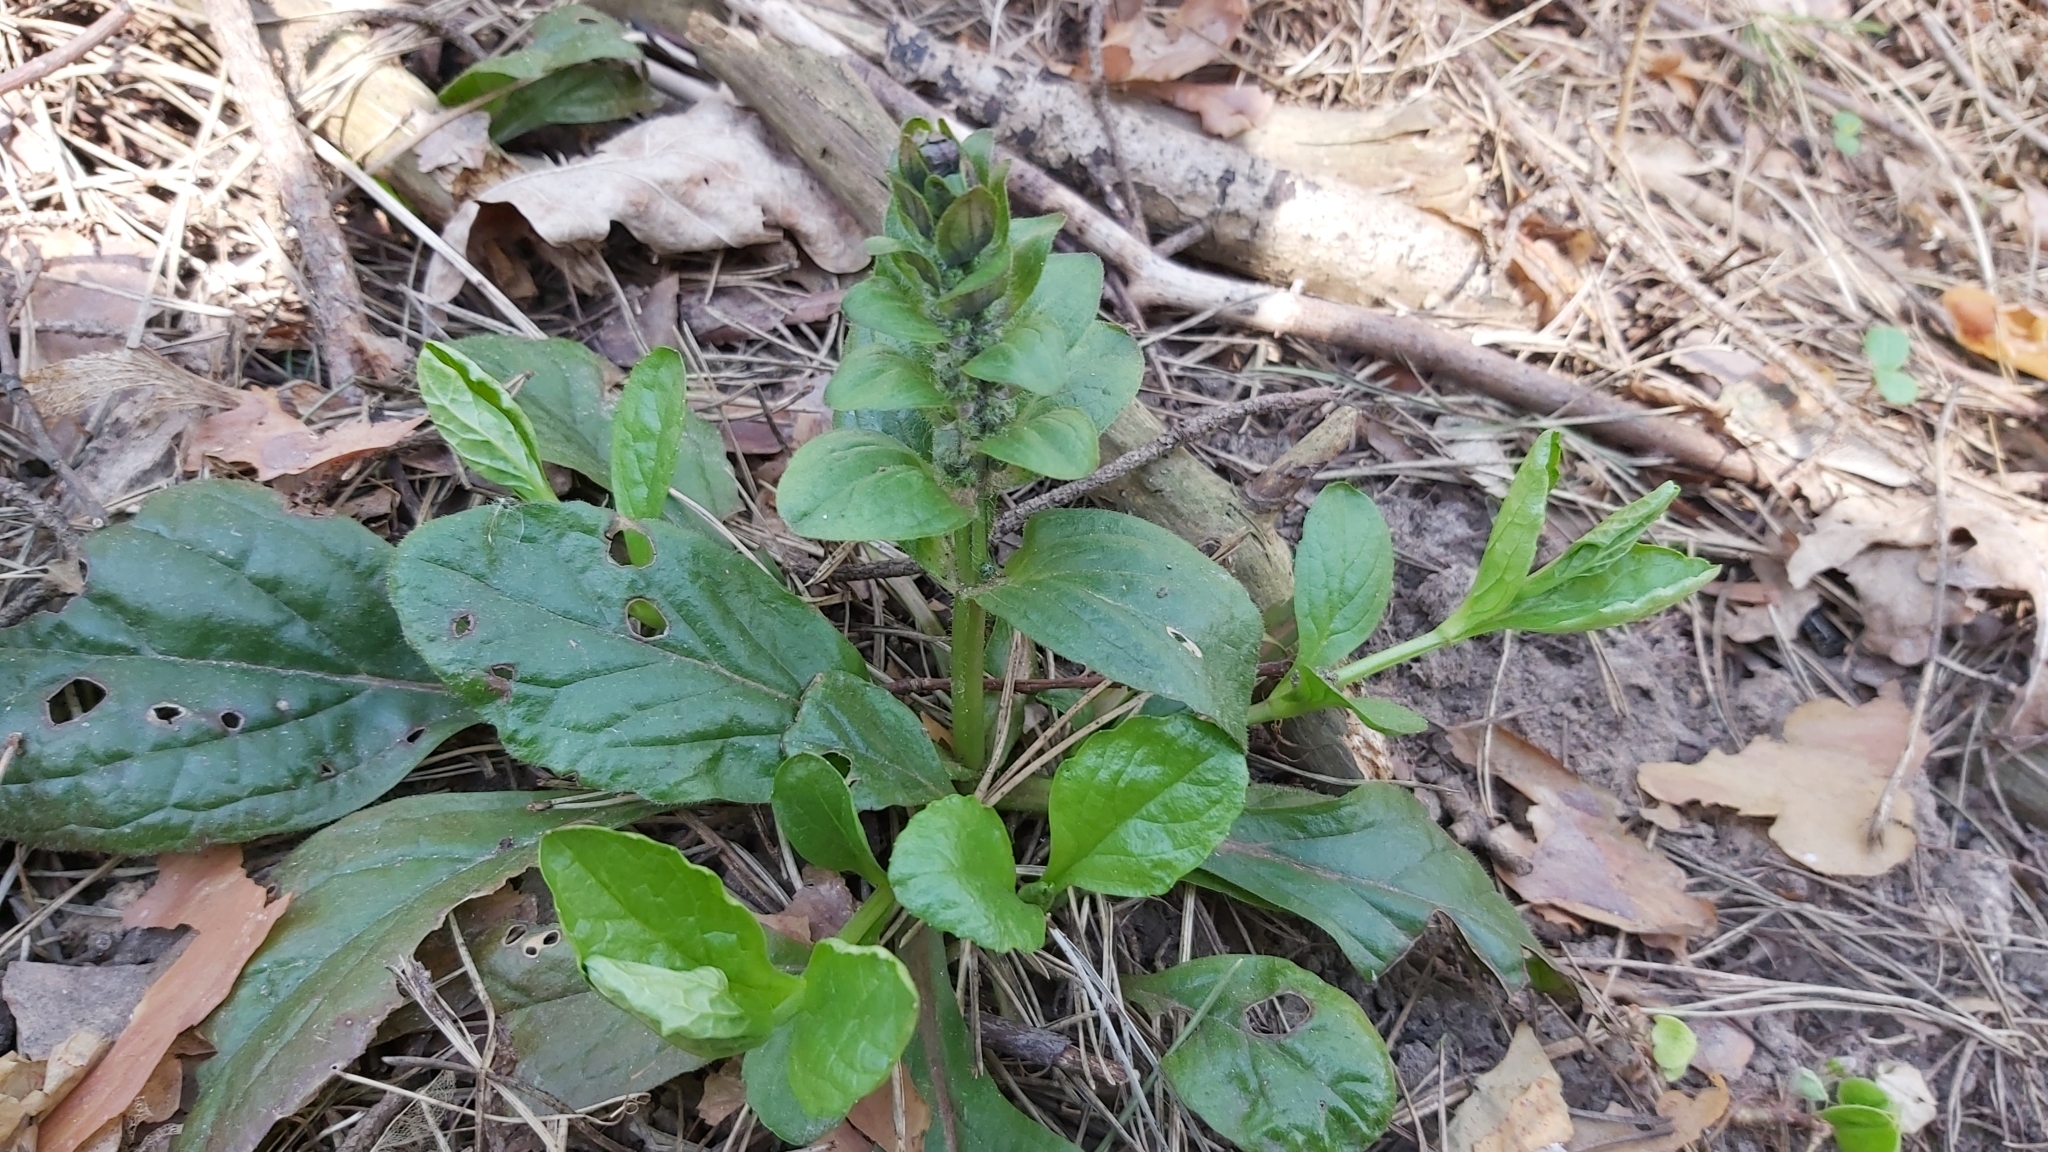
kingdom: Plantae
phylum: Tracheophyta
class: Magnoliopsida
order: Lamiales
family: Lamiaceae
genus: Ajuga
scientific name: Ajuga reptans
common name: Bugle
